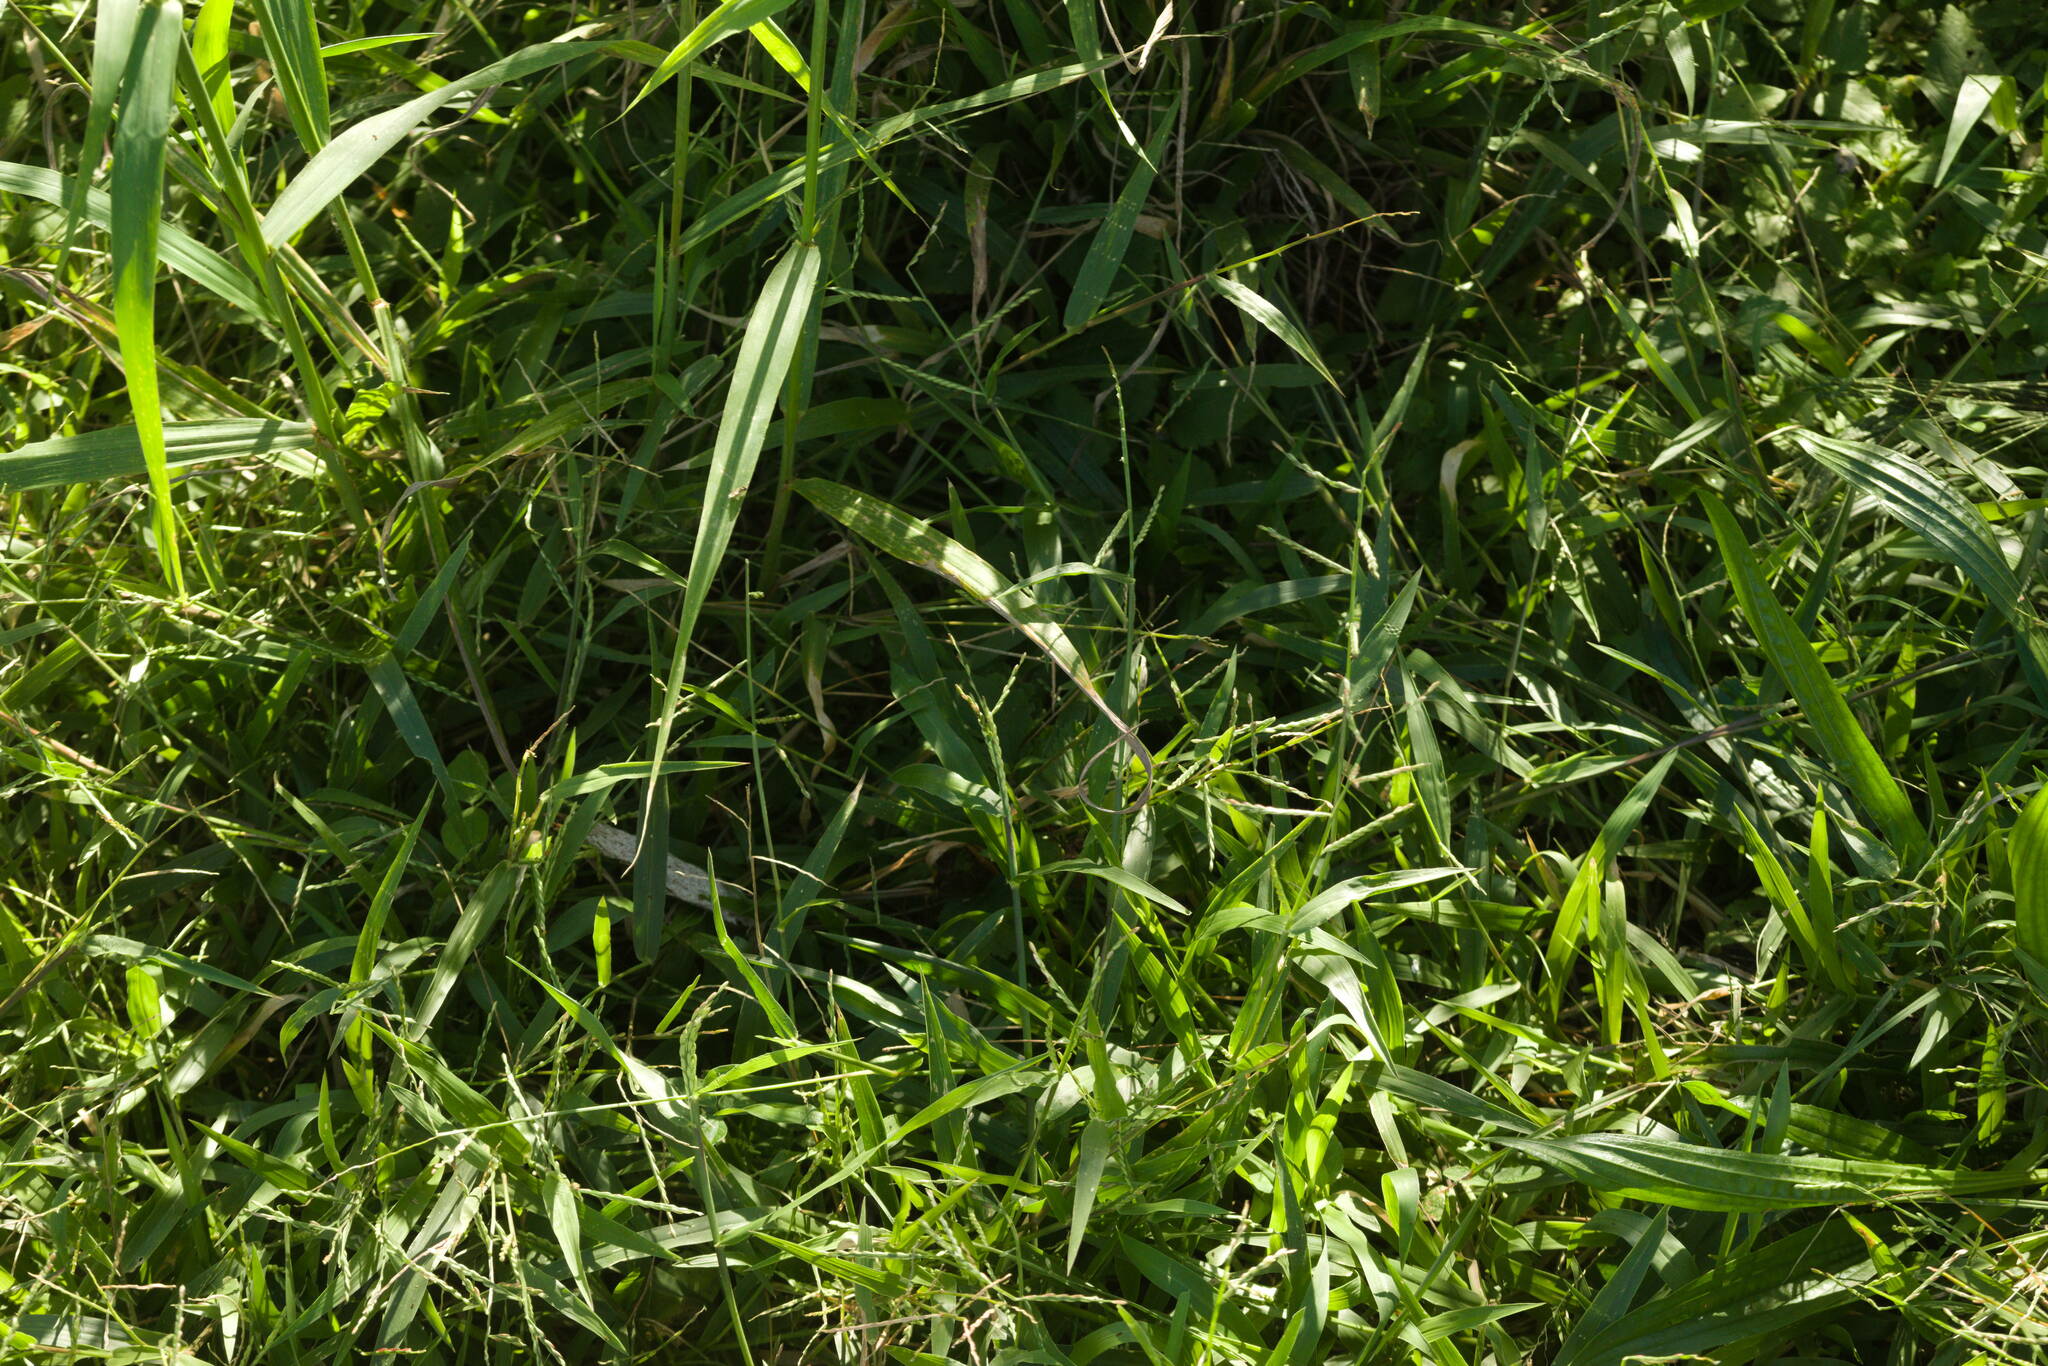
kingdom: Plantae
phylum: Tracheophyta
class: Liliopsida
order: Poales
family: Poaceae
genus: Urochloa
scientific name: Urochloa distachyos
